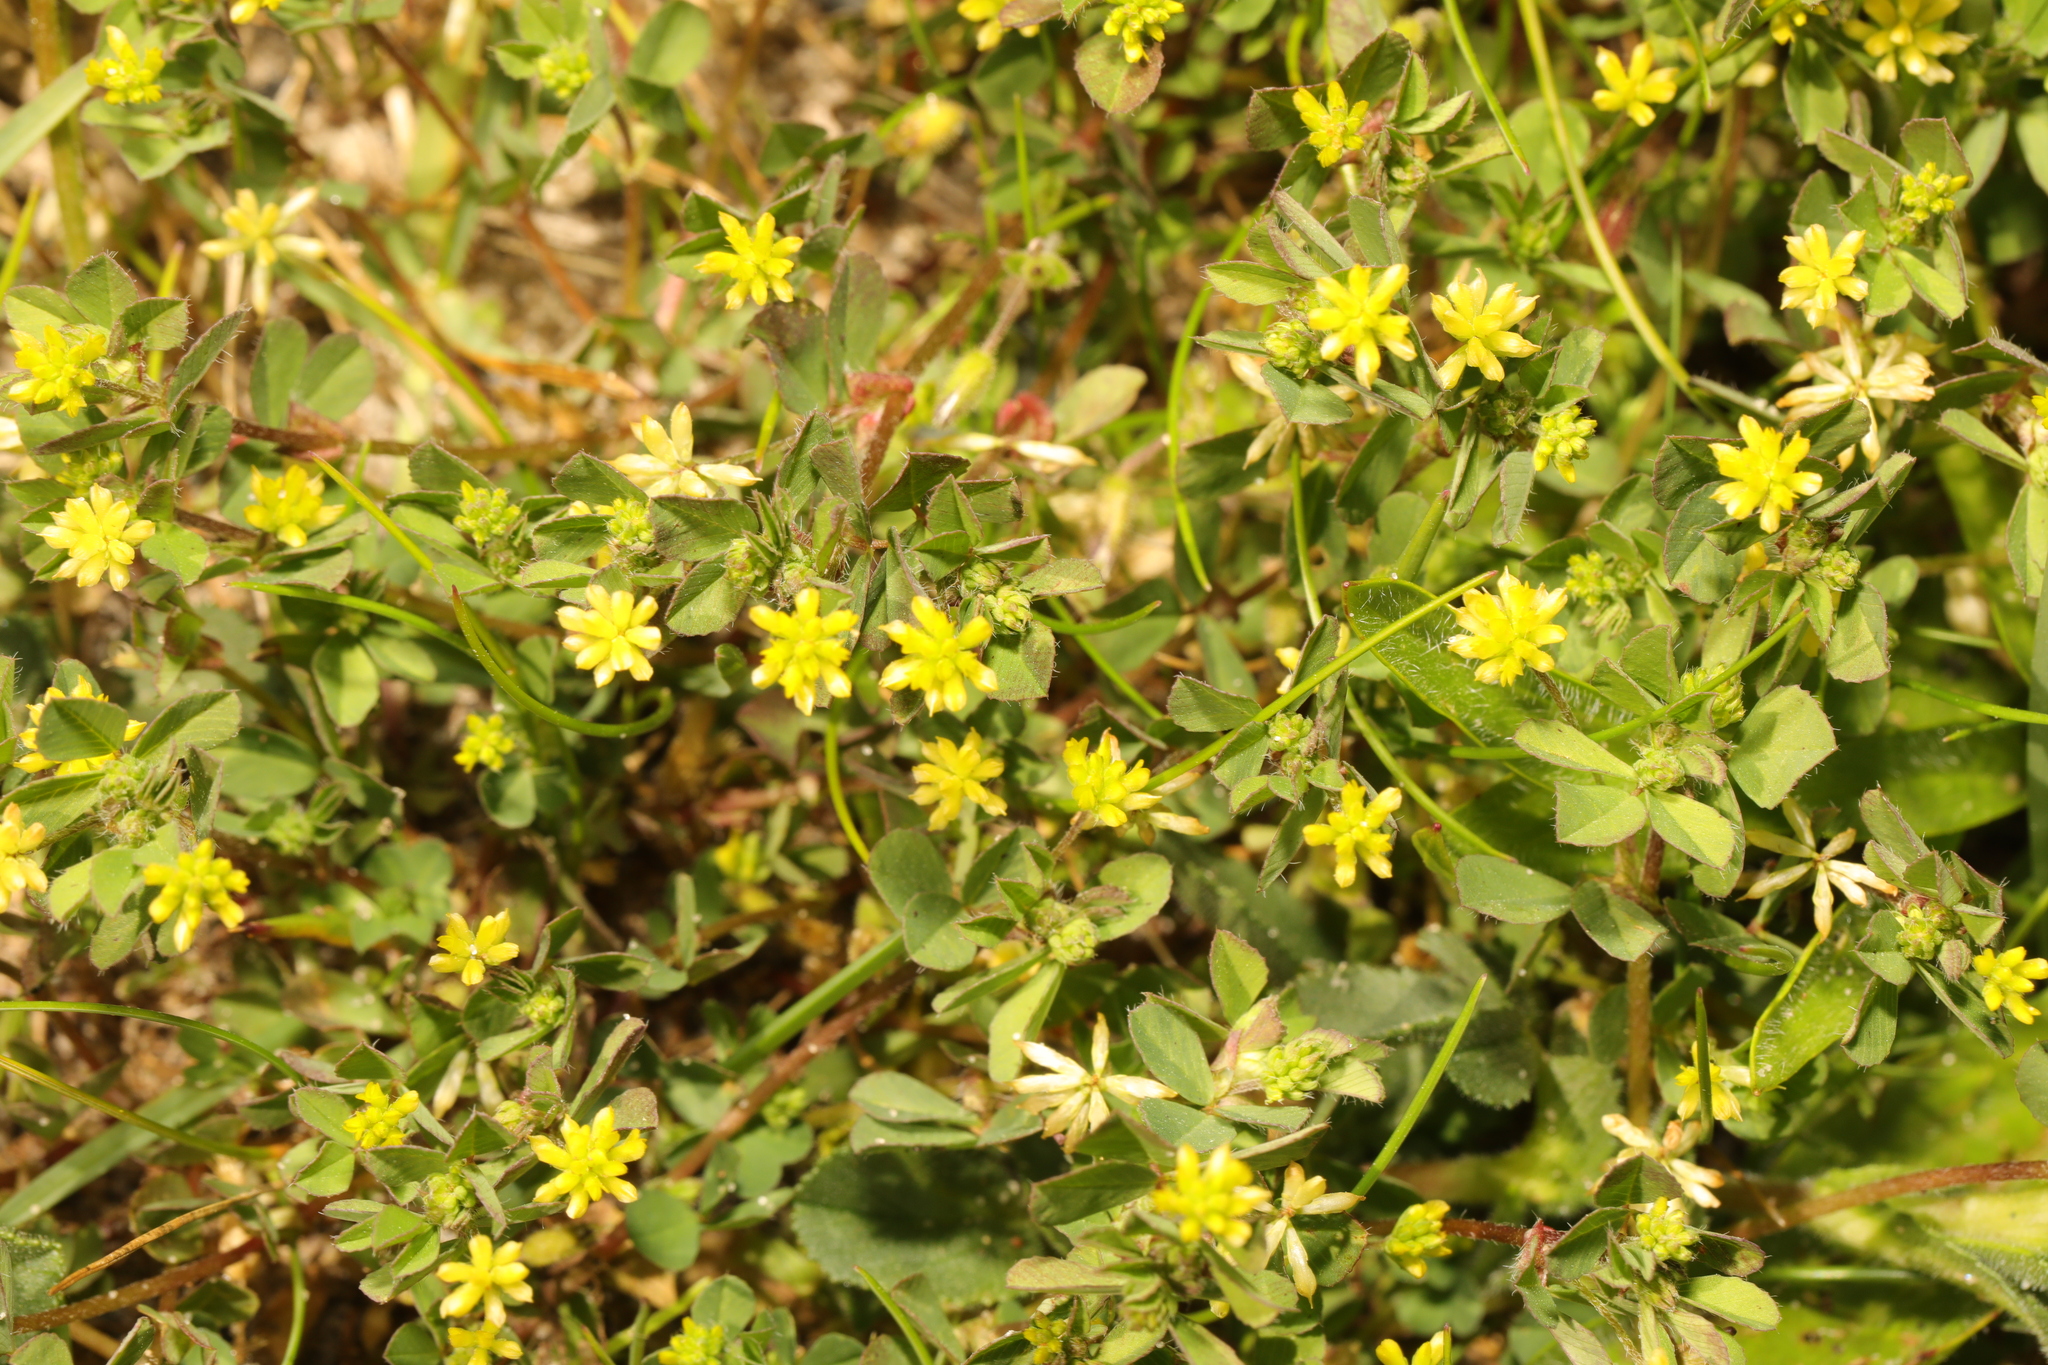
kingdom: Plantae
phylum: Tracheophyta
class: Magnoliopsida
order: Fabales
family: Fabaceae
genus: Trifolium
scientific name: Trifolium dubium
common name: Suckling clover
